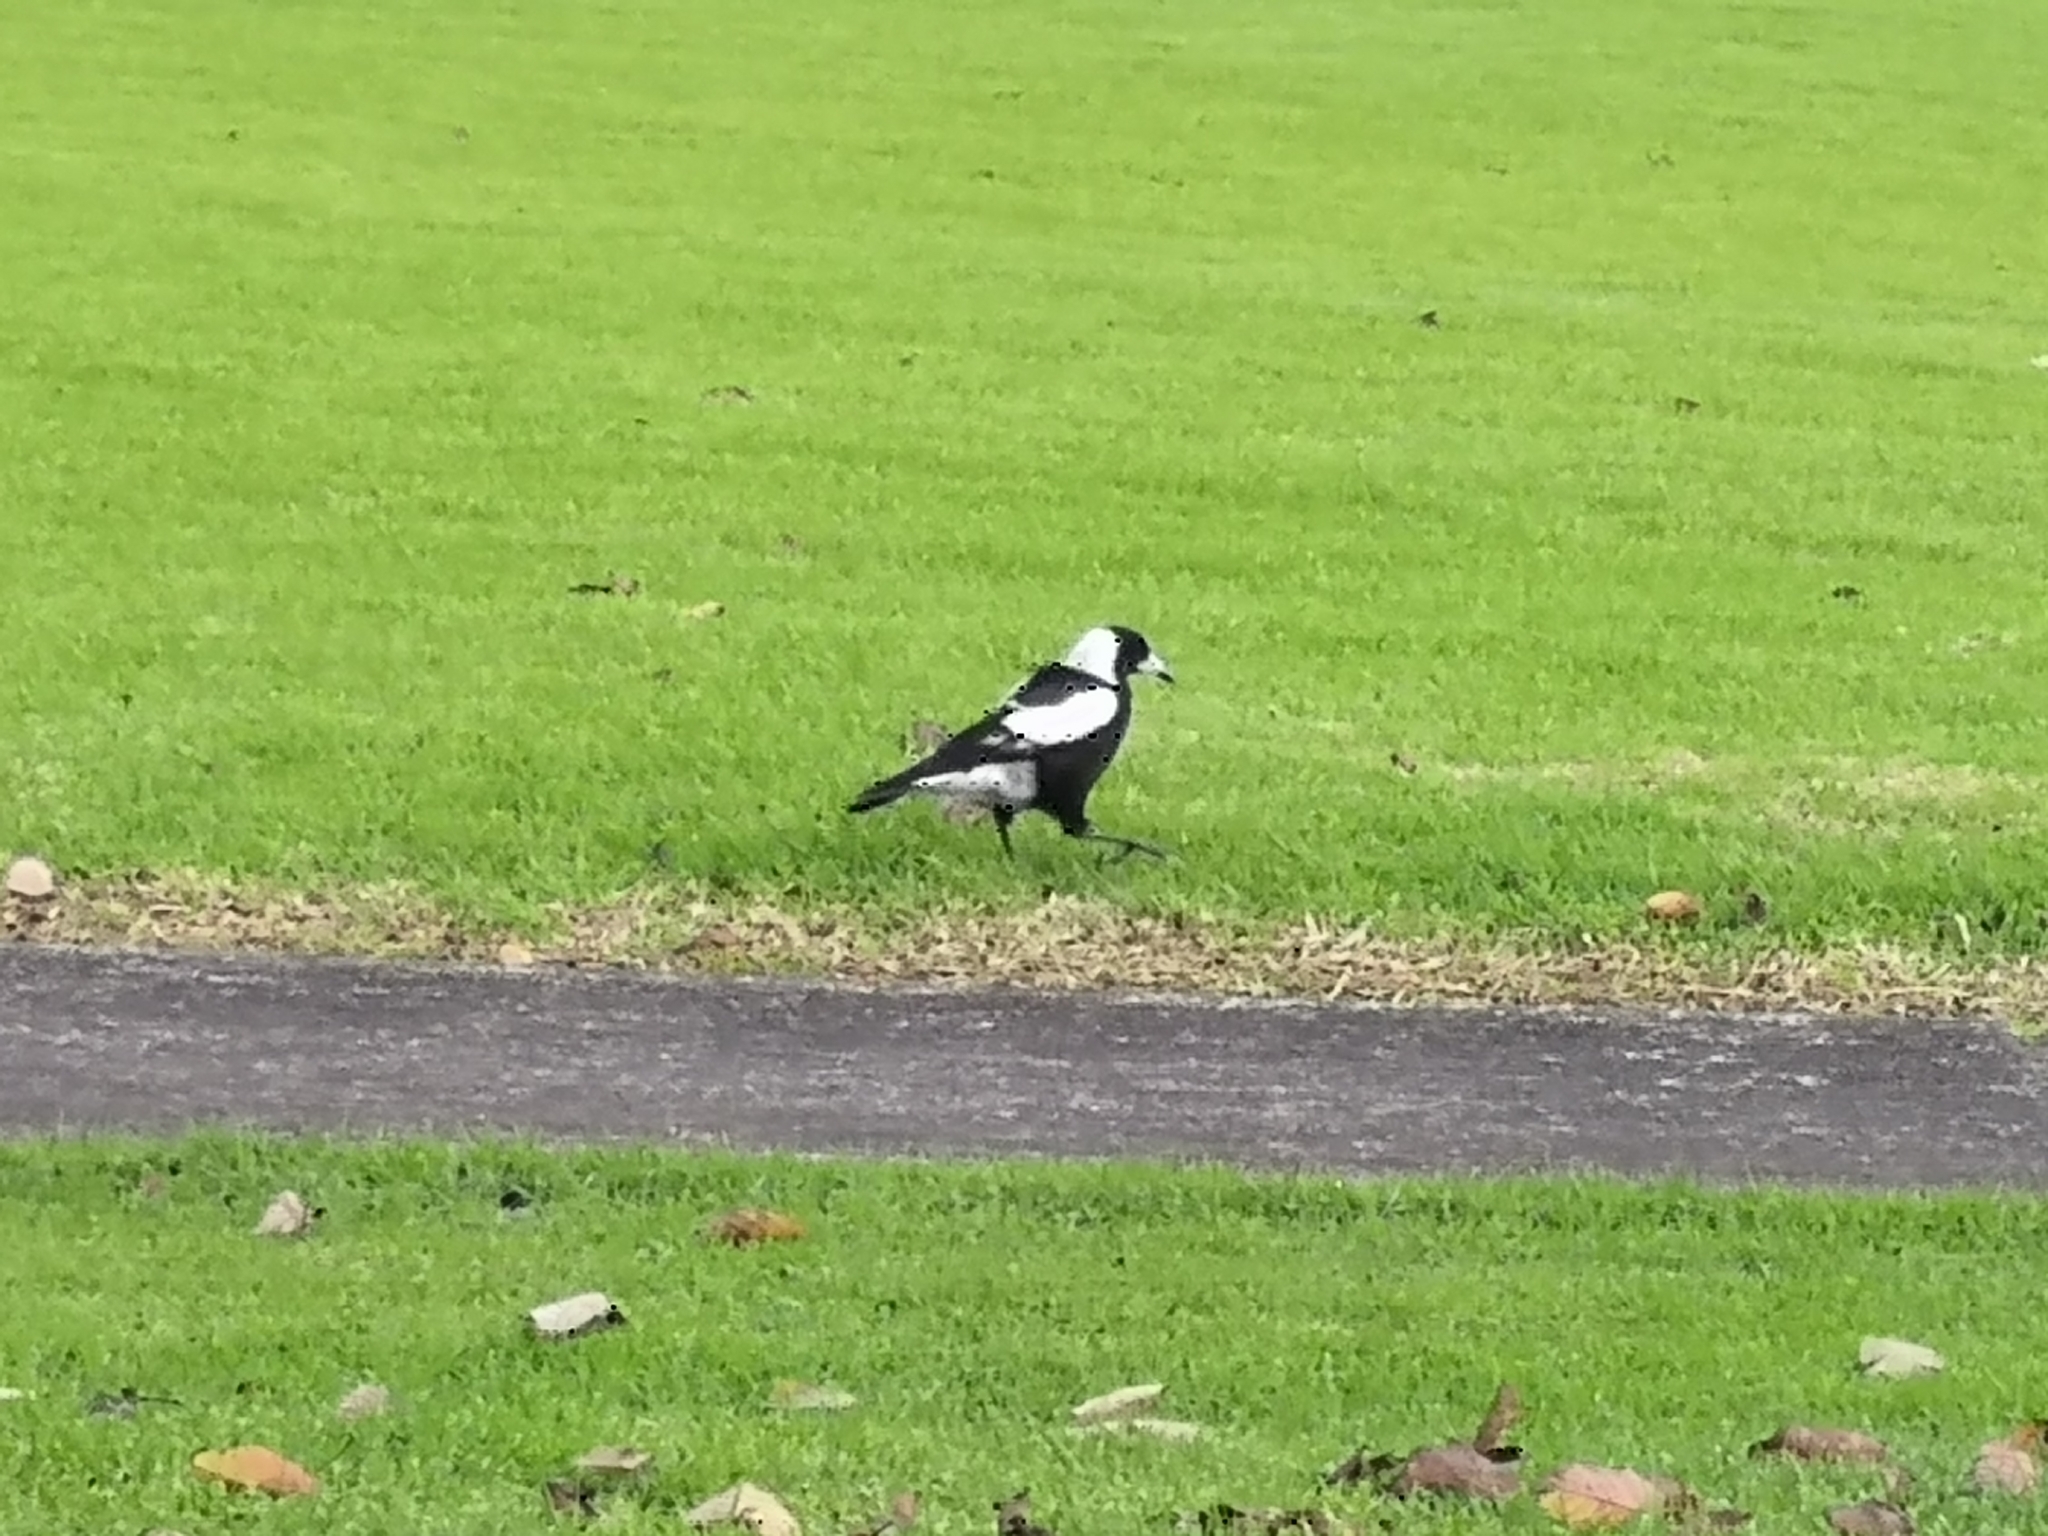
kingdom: Animalia
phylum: Chordata
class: Aves
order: Passeriformes
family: Cracticidae
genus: Gymnorhina
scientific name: Gymnorhina tibicen
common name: Australian magpie
